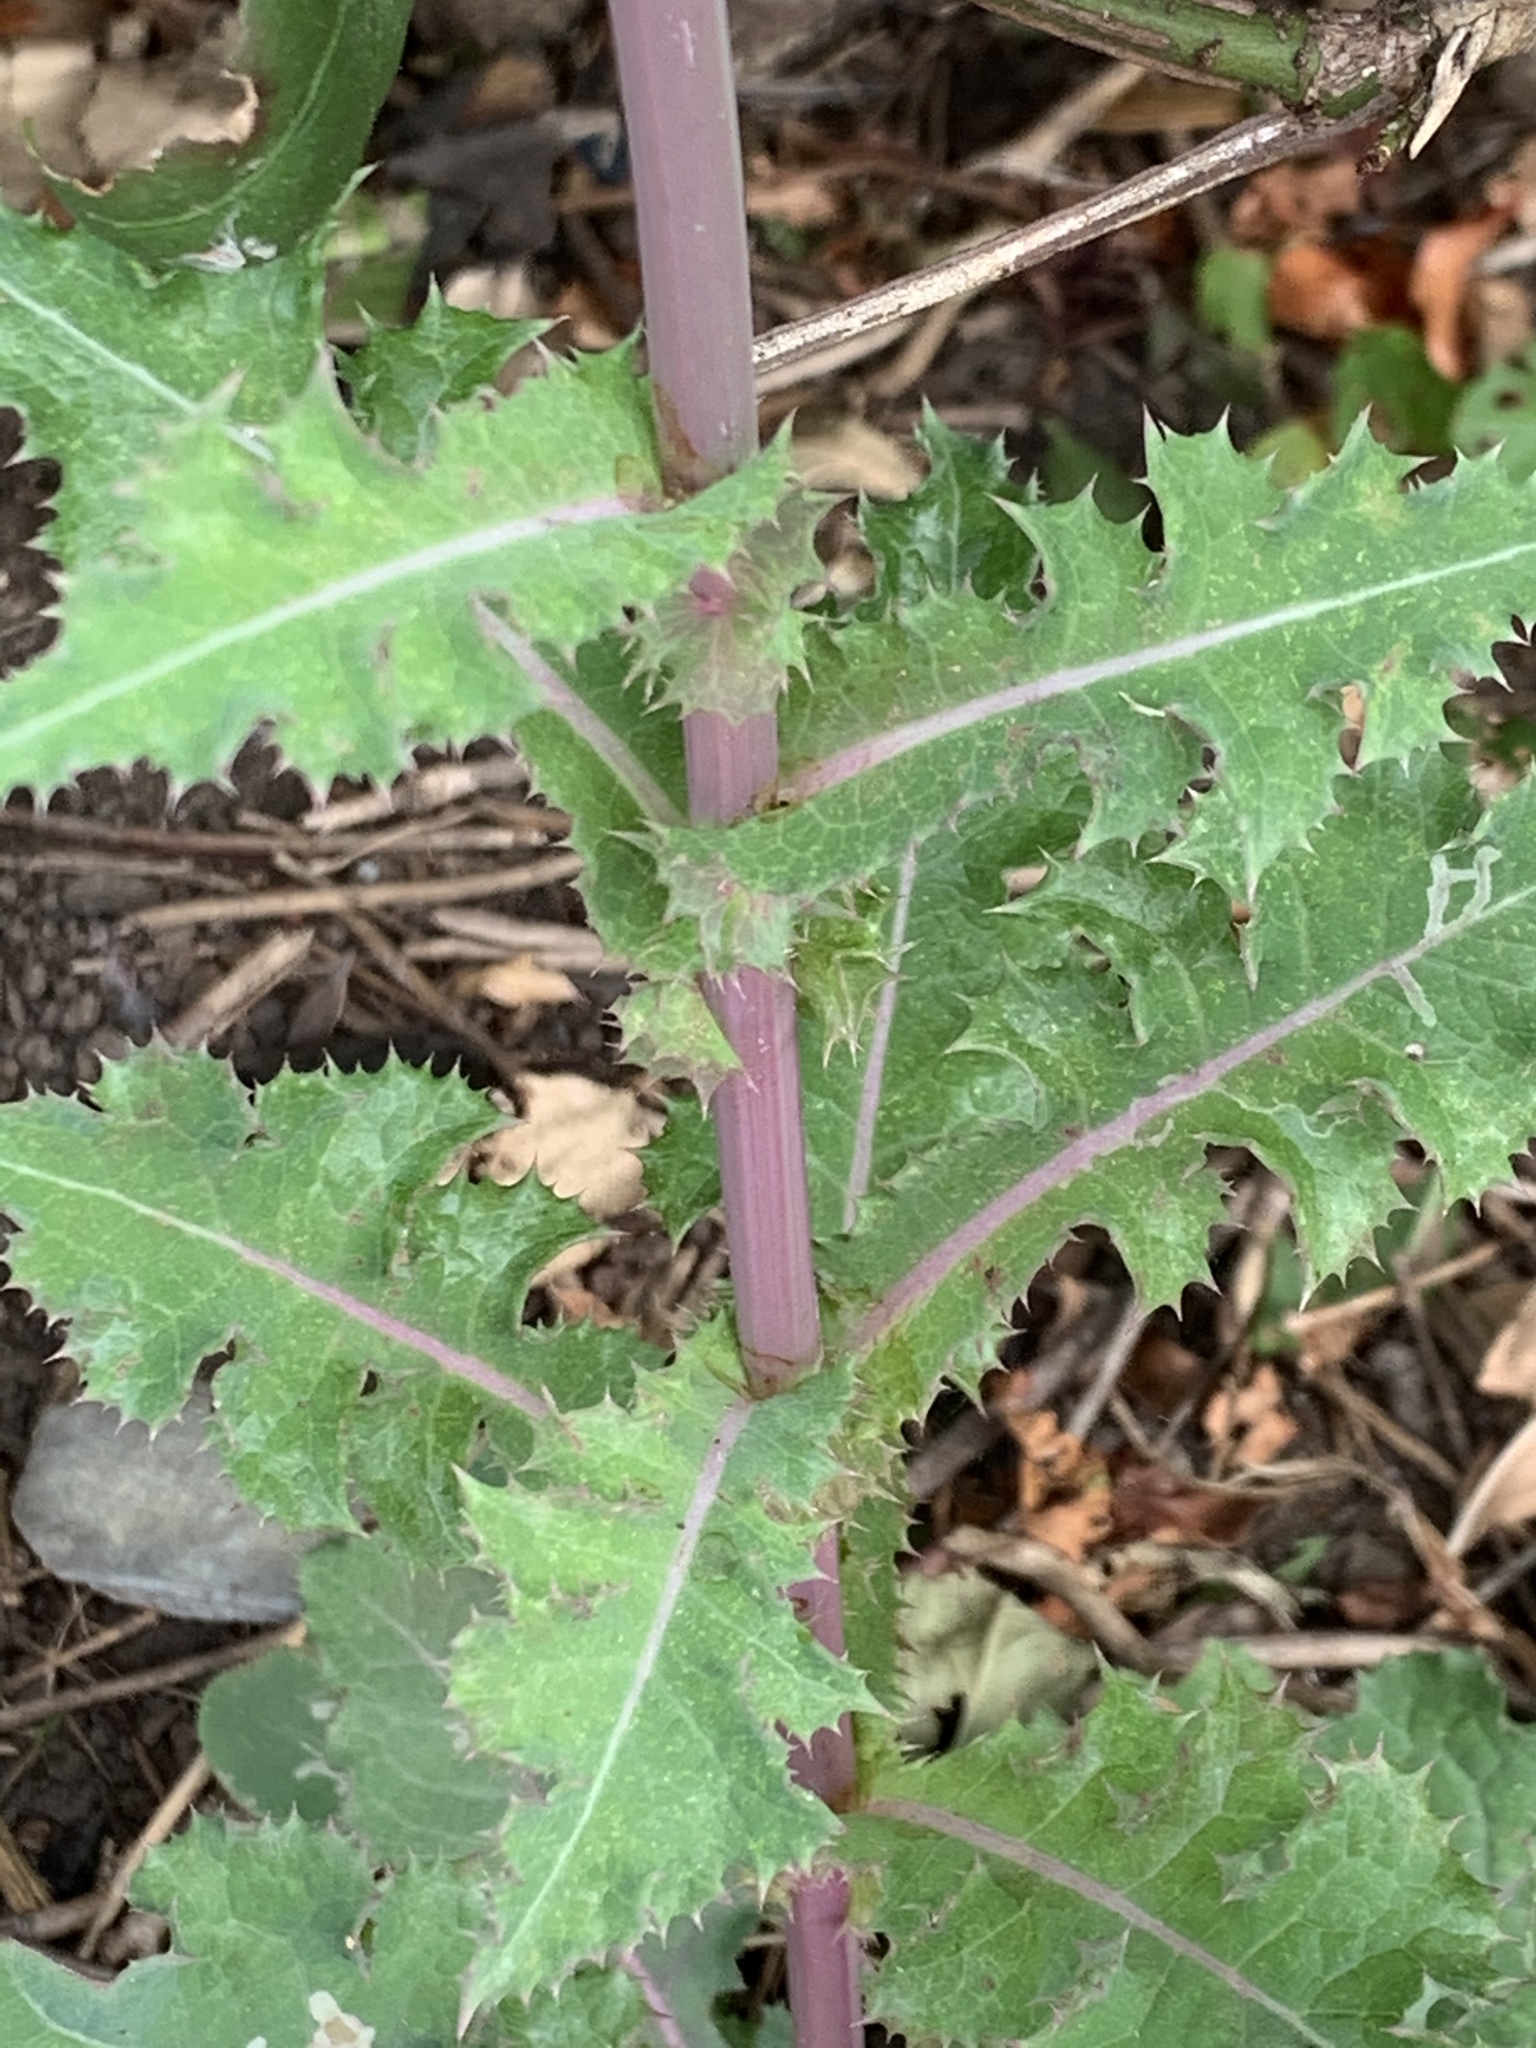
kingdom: Plantae
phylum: Tracheophyta
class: Magnoliopsida
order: Asterales
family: Asteraceae
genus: Sonchus
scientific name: Sonchus asper
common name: Prickly sow-thistle
